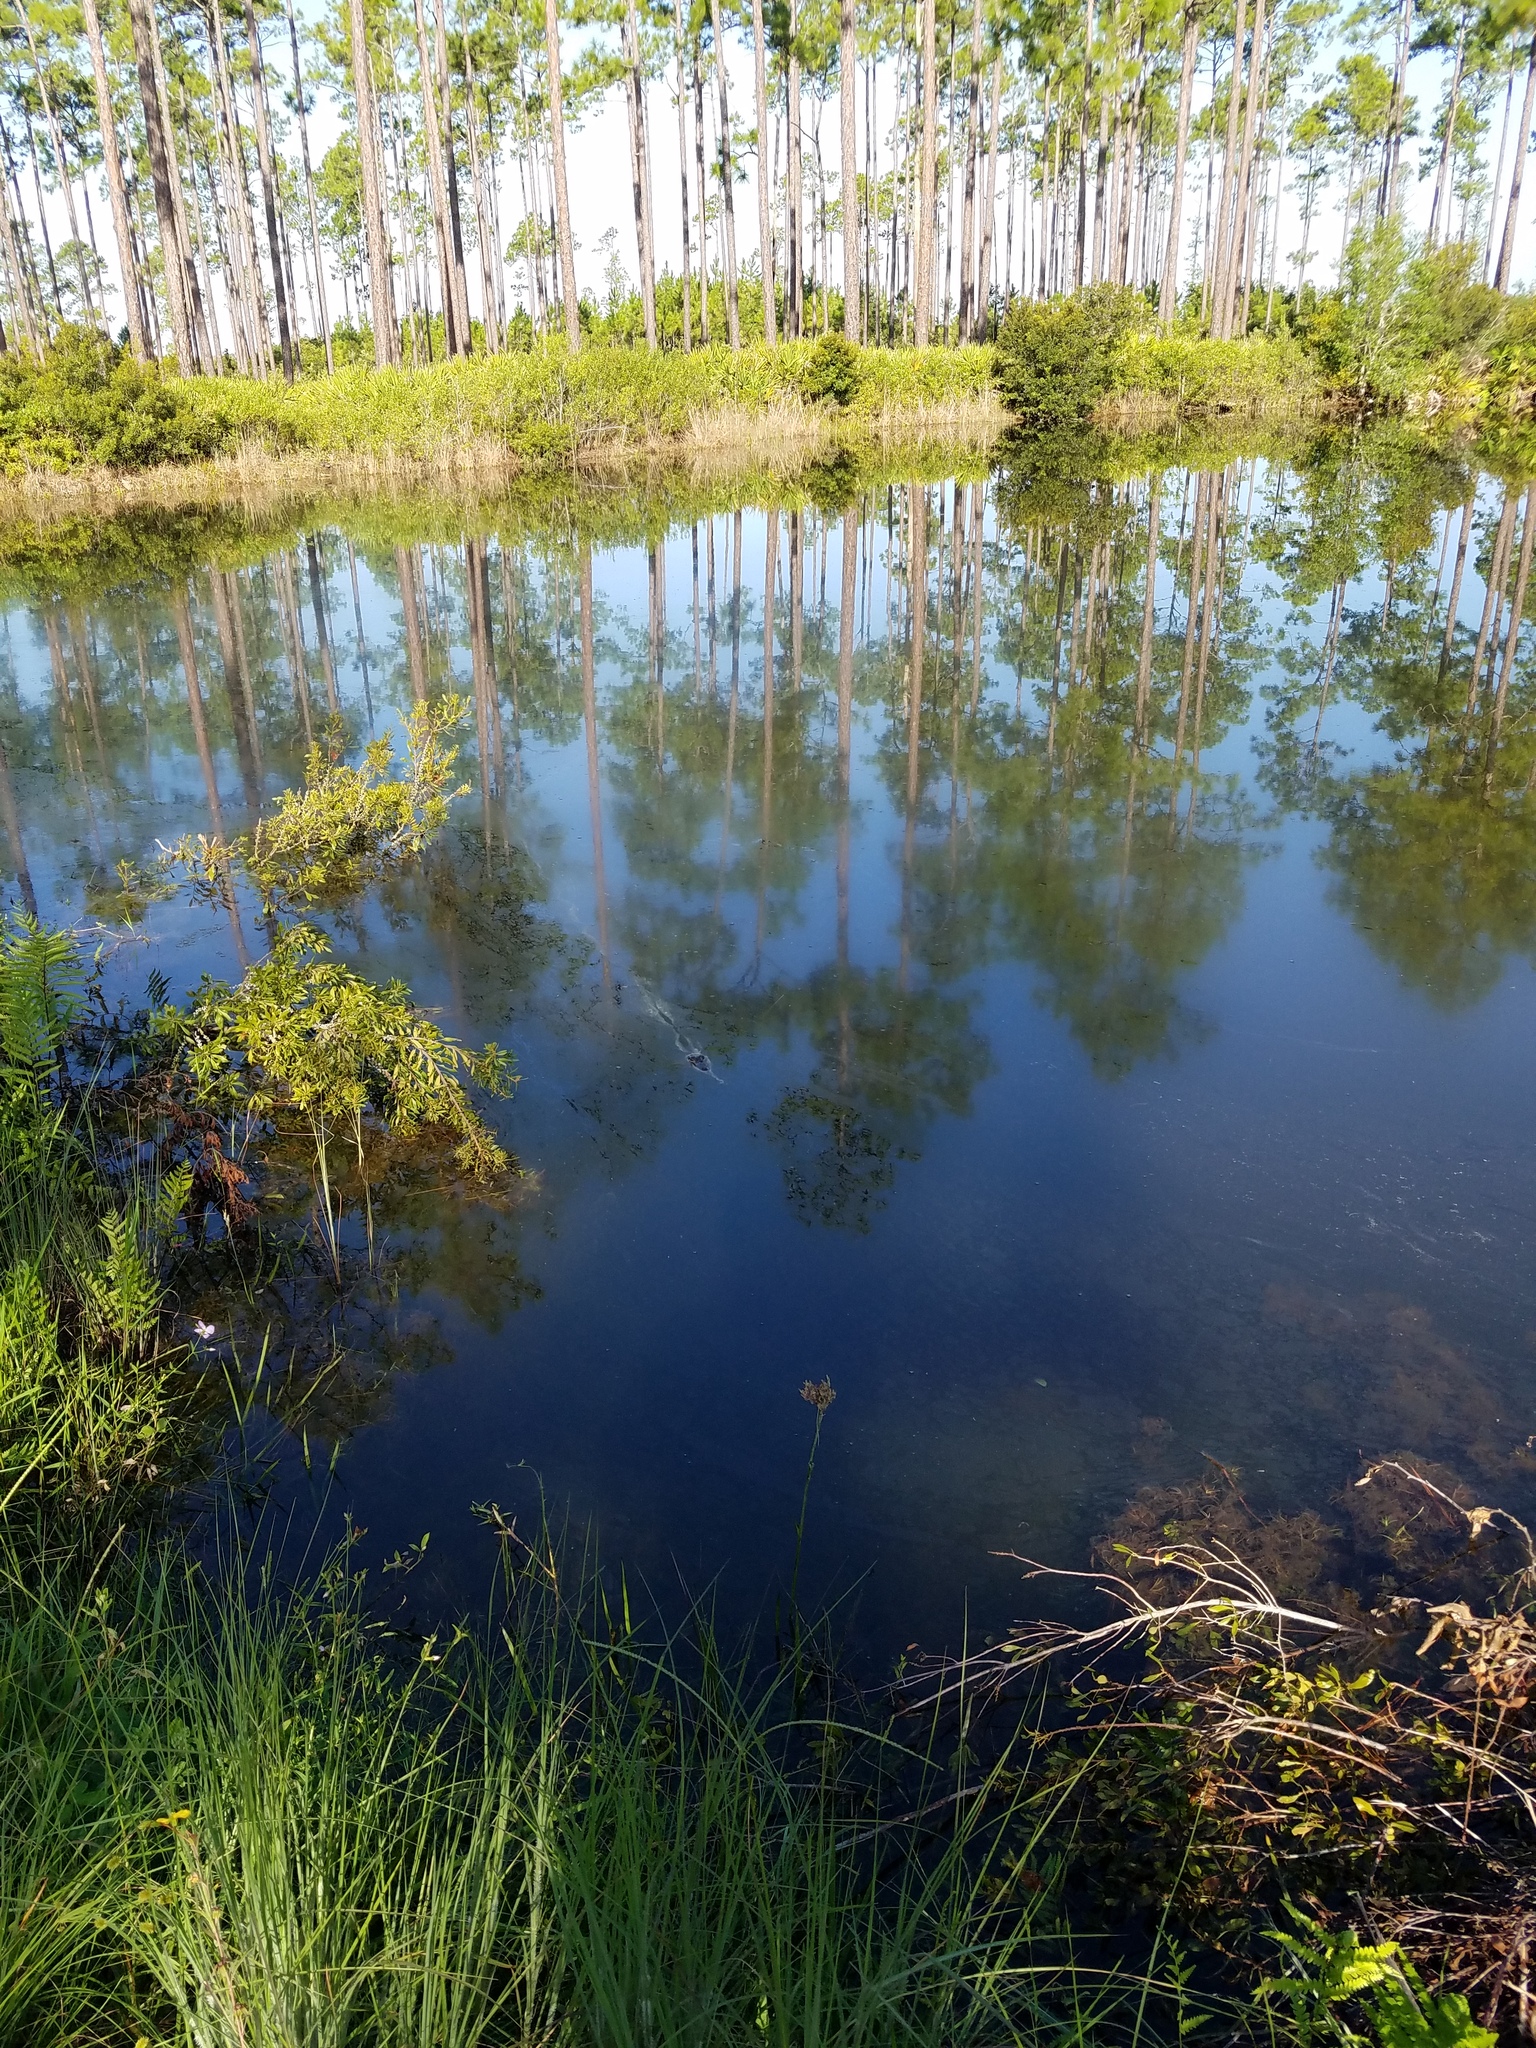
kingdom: Animalia
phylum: Chordata
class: Crocodylia
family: Alligatoridae
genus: Alligator
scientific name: Alligator mississippiensis
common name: American alligator
